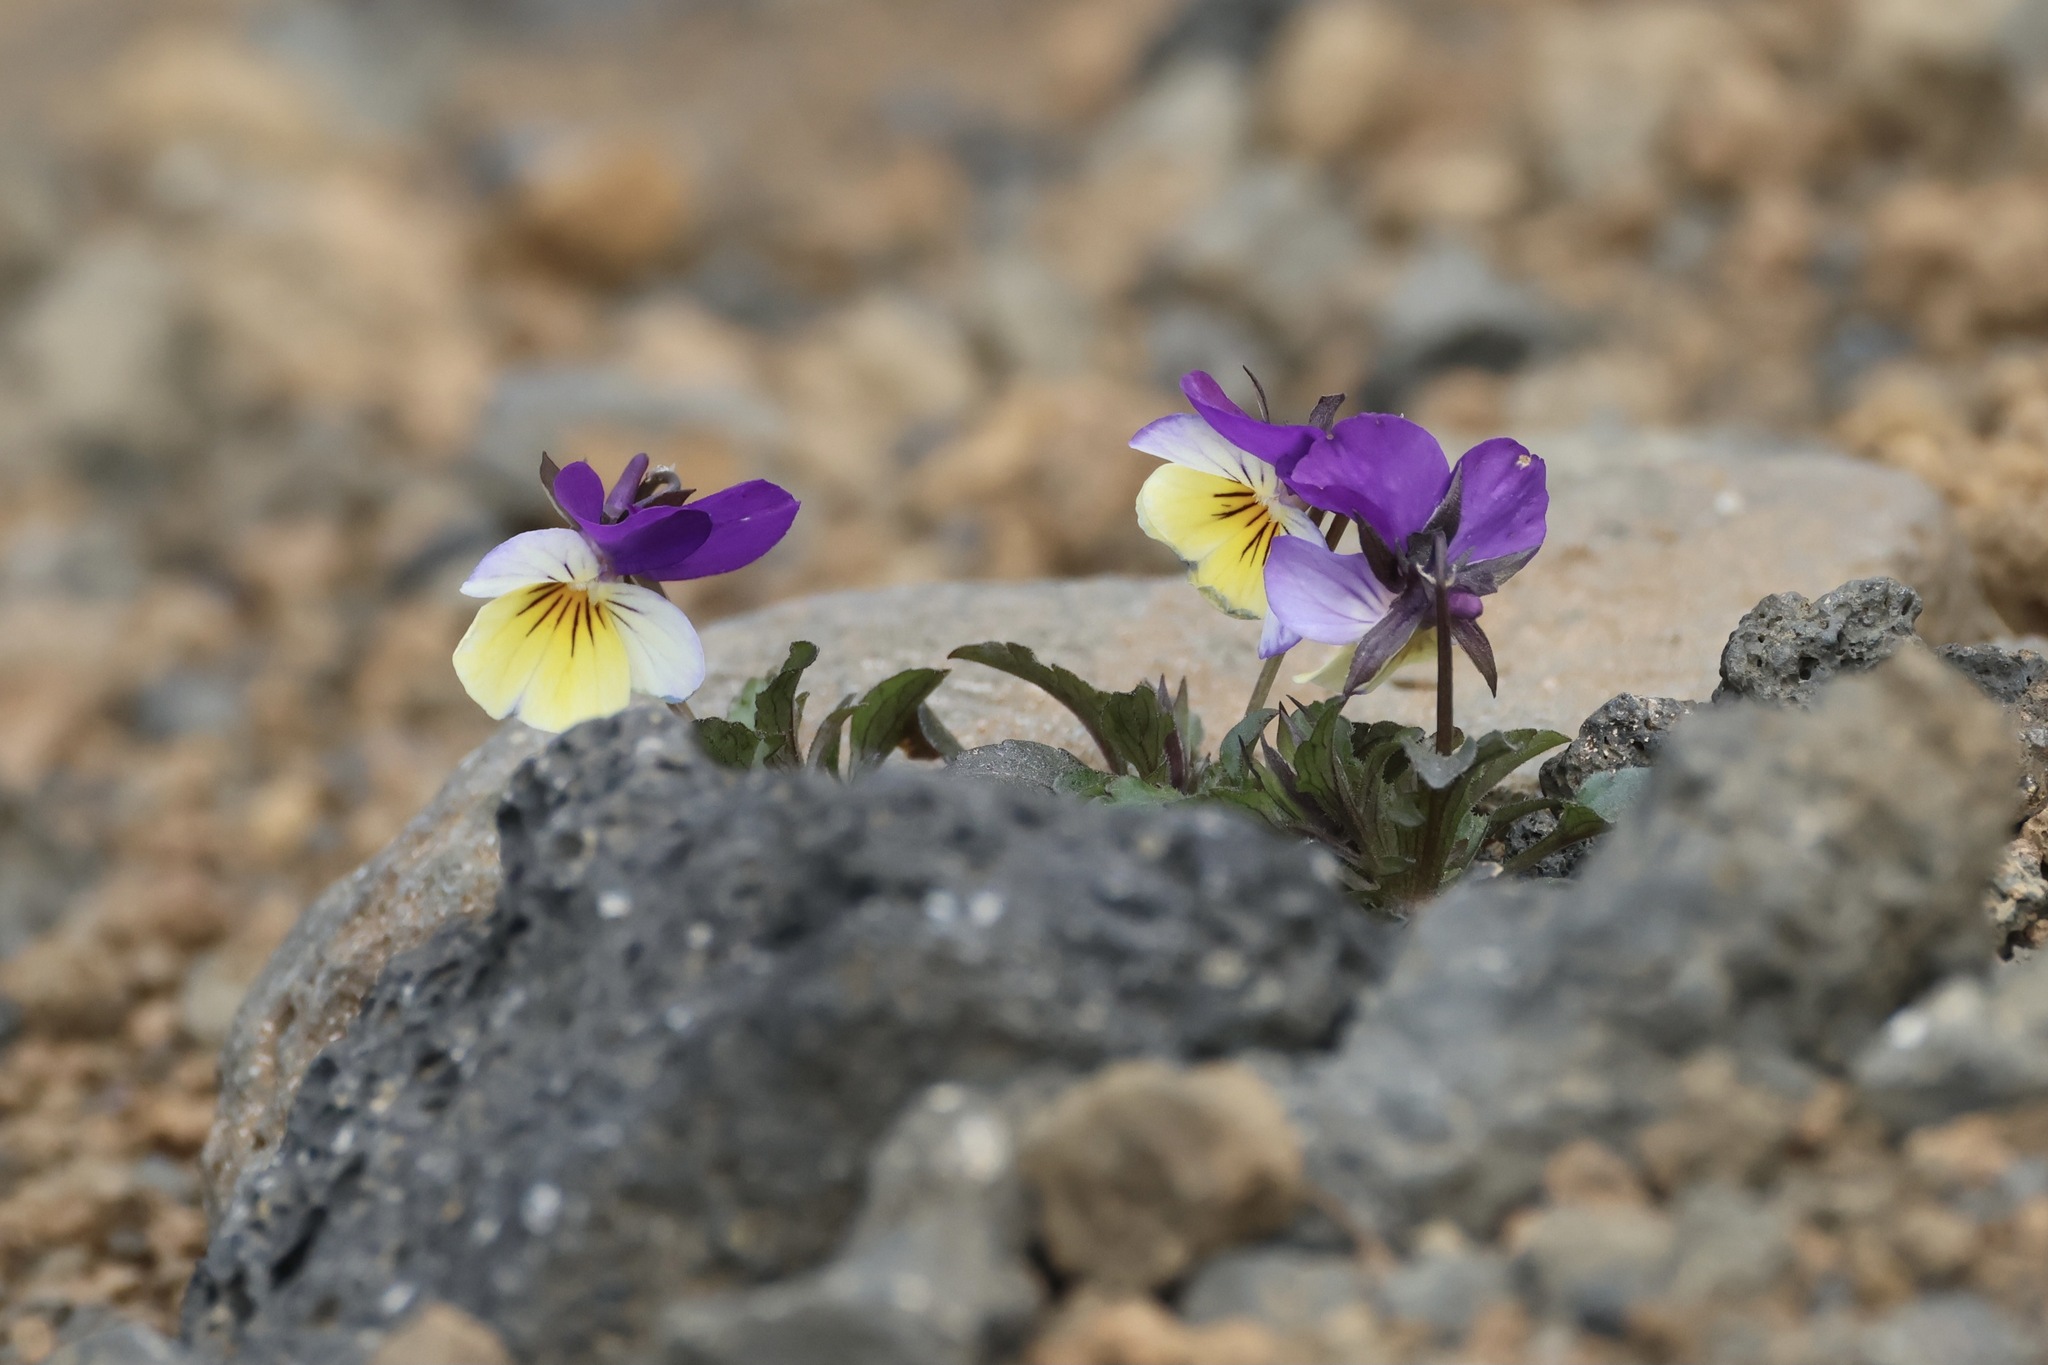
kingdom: Plantae
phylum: Tracheophyta
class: Magnoliopsida
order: Malpighiales
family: Violaceae
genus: Viola
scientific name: Viola tricolor
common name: Pansy
